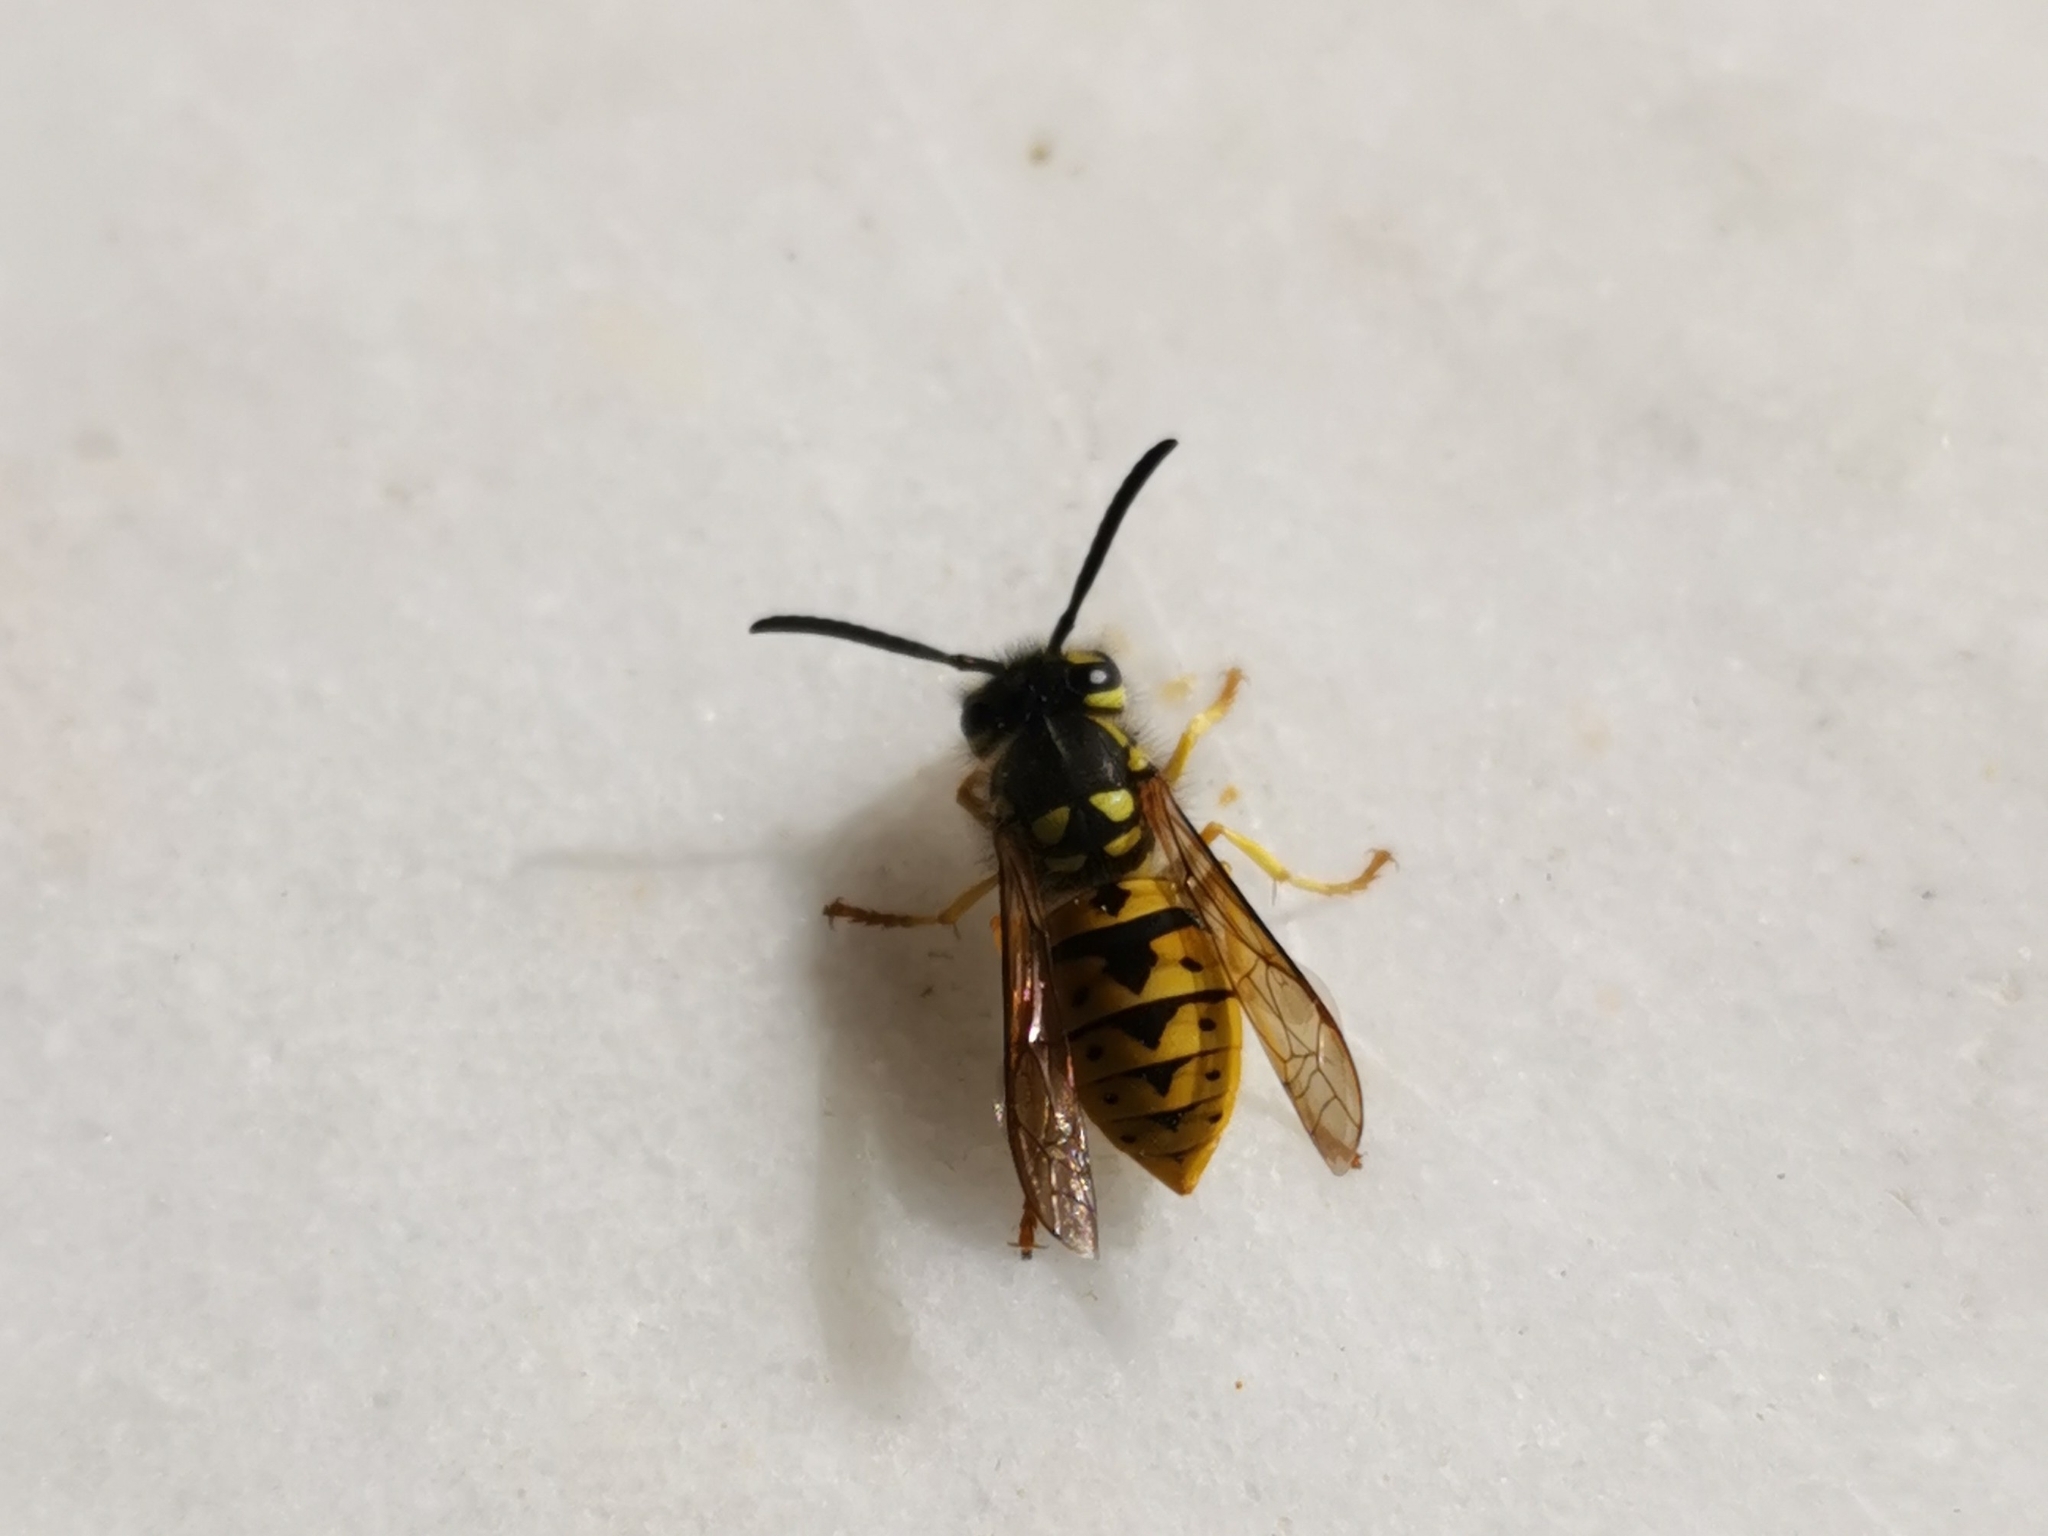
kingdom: Animalia
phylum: Arthropoda
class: Insecta
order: Hymenoptera
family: Vespidae
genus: Vespula
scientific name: Vespula germanica
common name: German wasp
